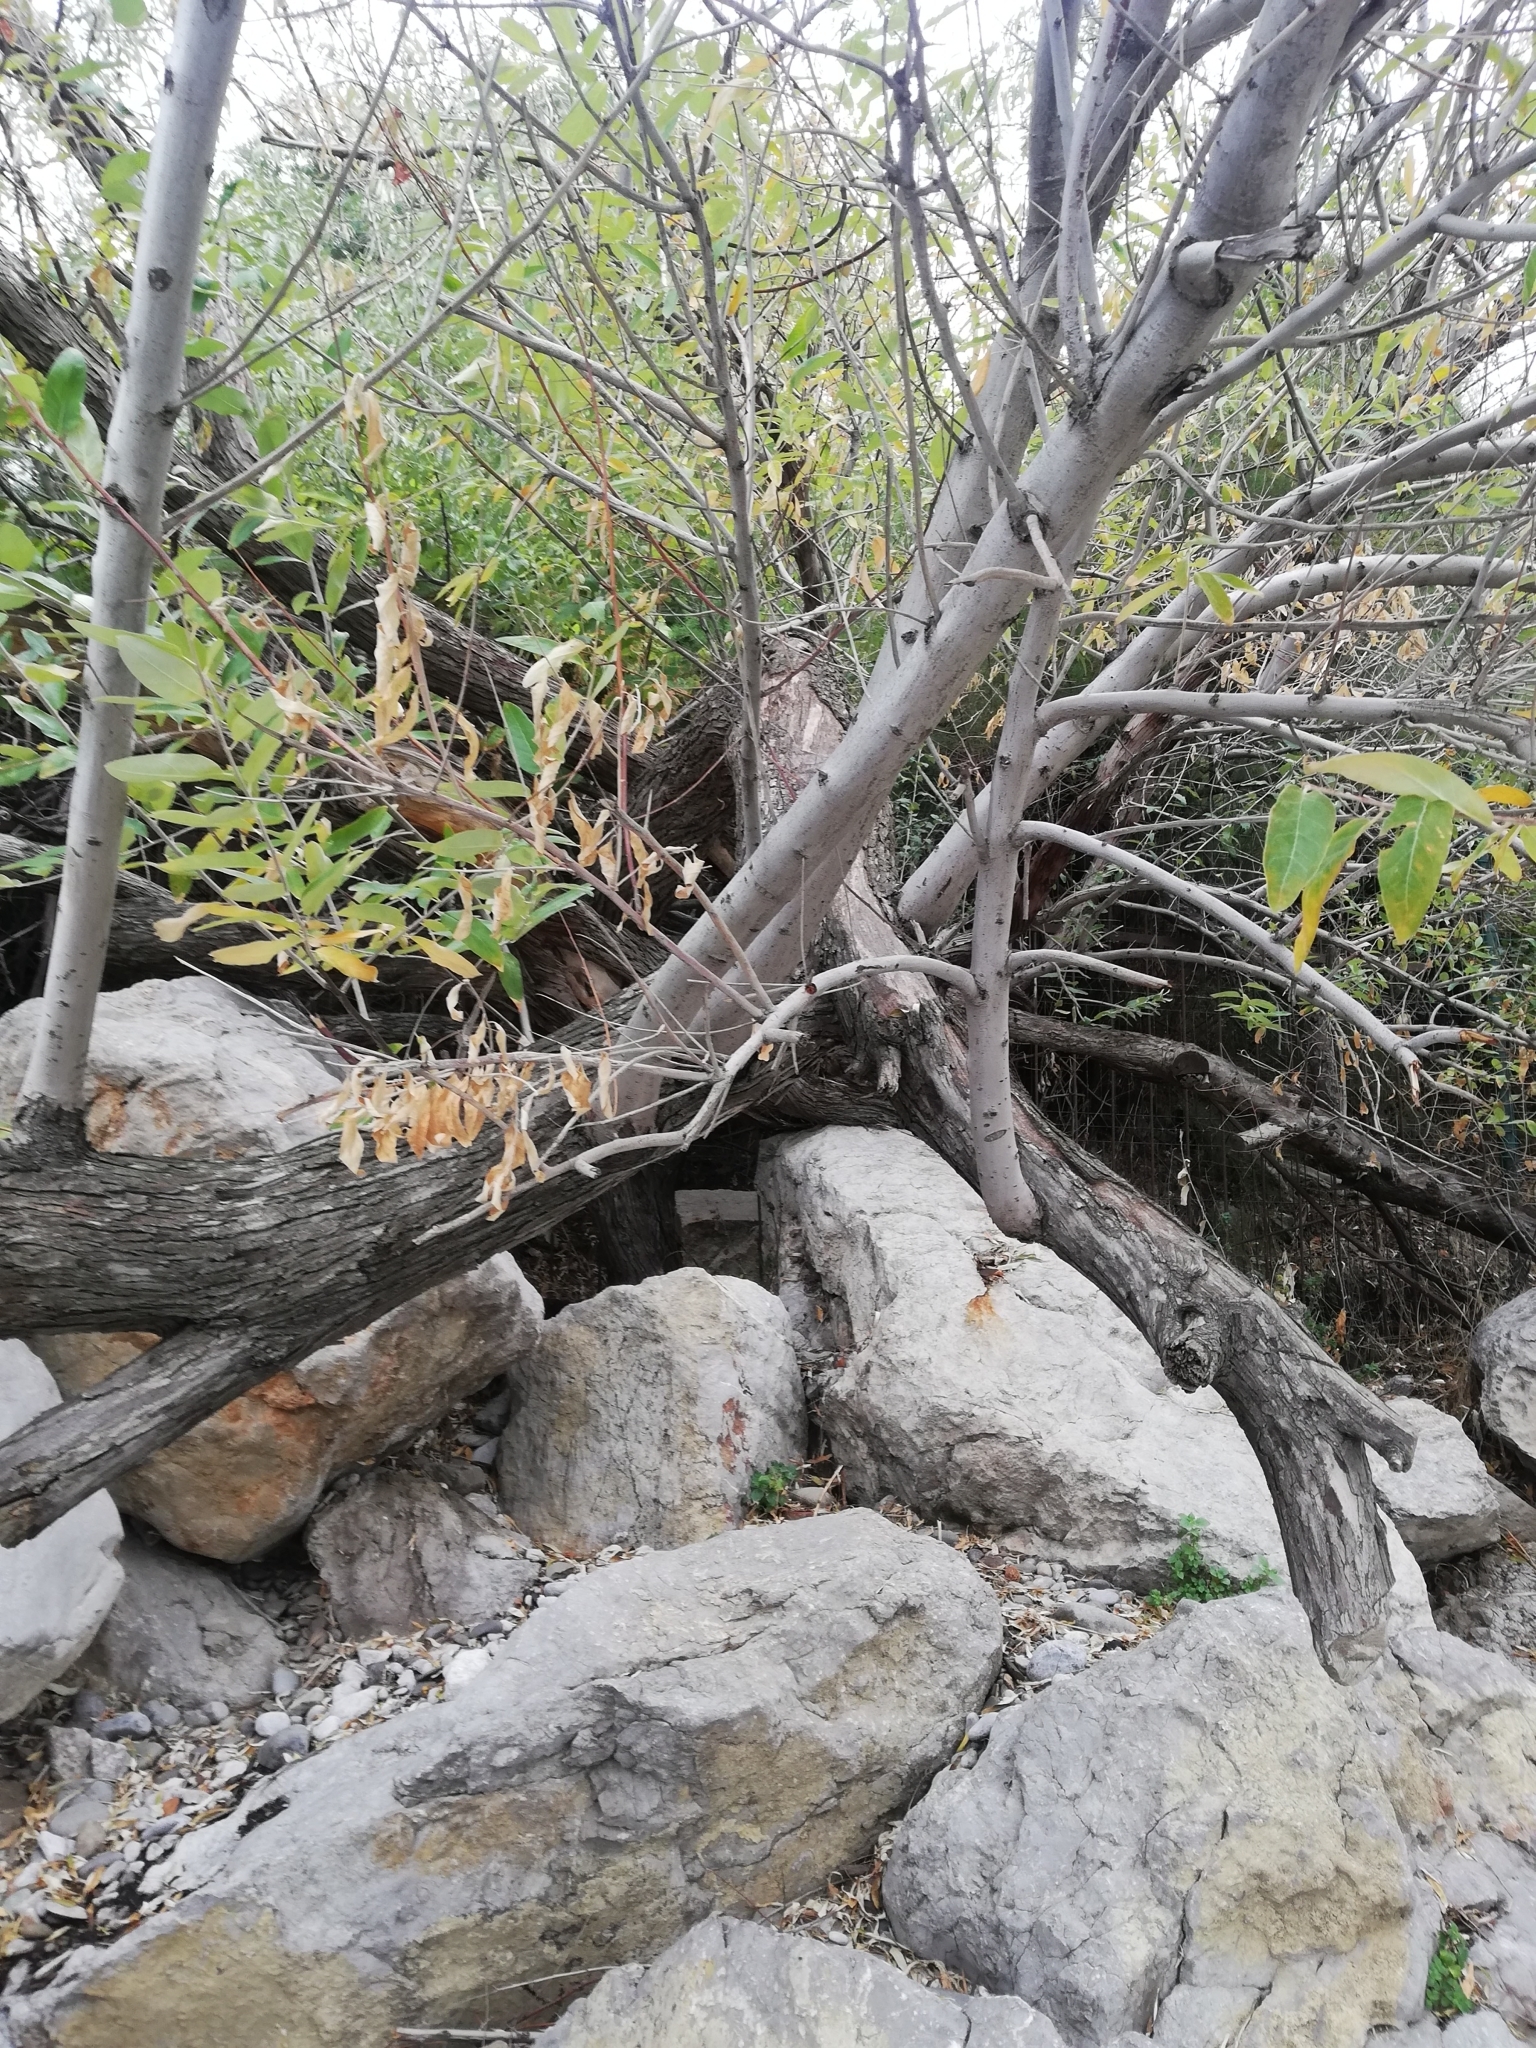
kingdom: Plantae
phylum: Tracheophyta
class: Magnoliopsida
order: Rosales
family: Elaeagnaceae
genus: Elaeagnus
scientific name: Elaeagnus angustifolia
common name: Russian olive
